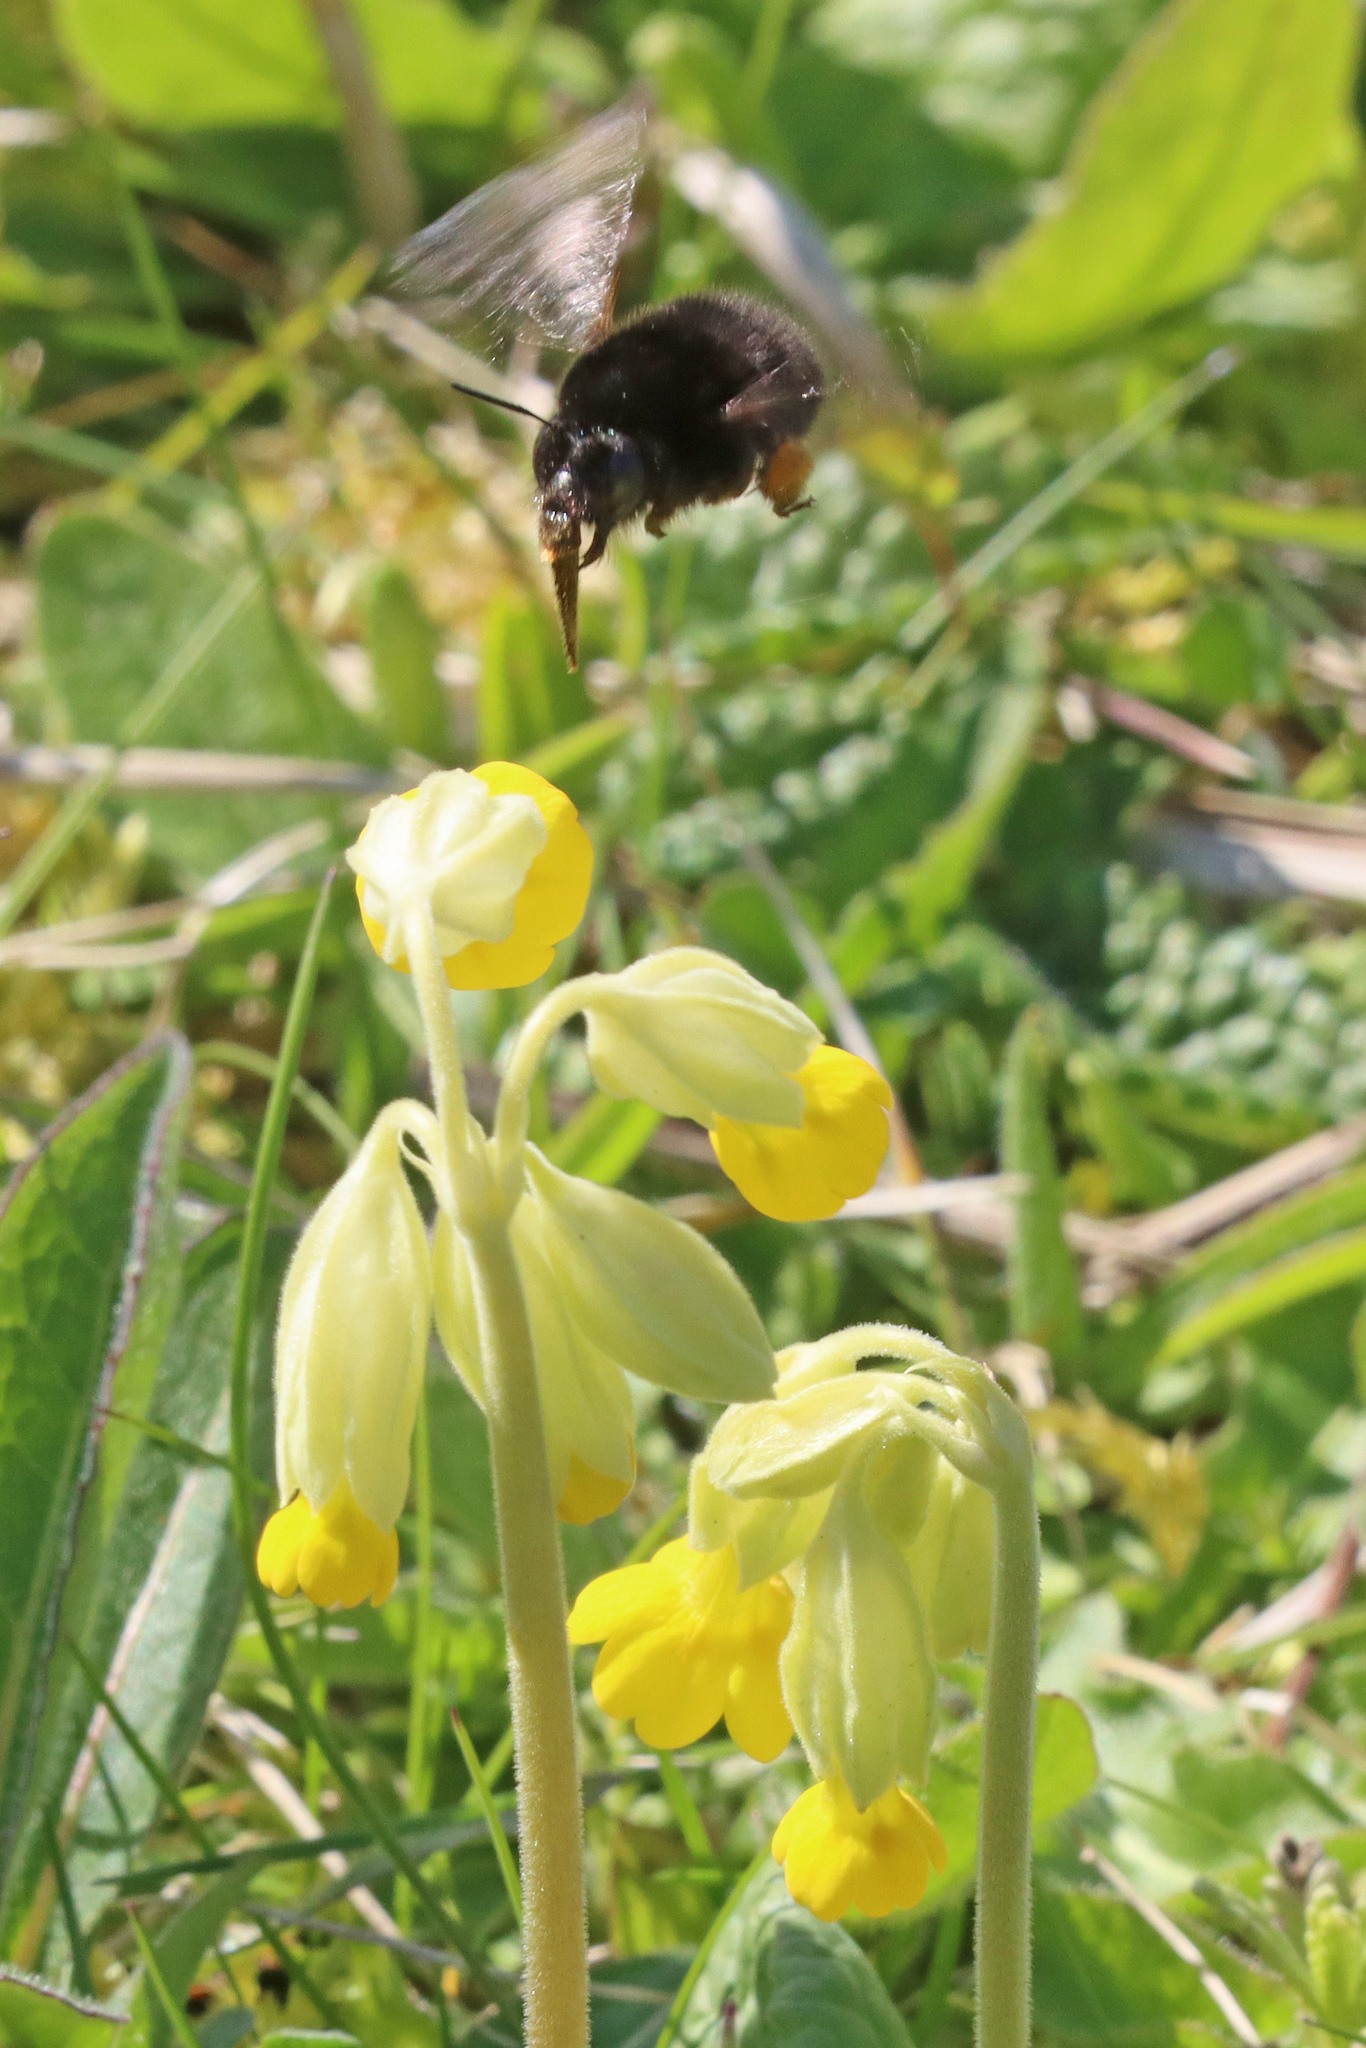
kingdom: Animalia
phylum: Arthropoda
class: Insecta
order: Hymenoptera
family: Apidae
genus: Anthophora
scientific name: Anthophora plumipes
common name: Hairy-footed flower bee
